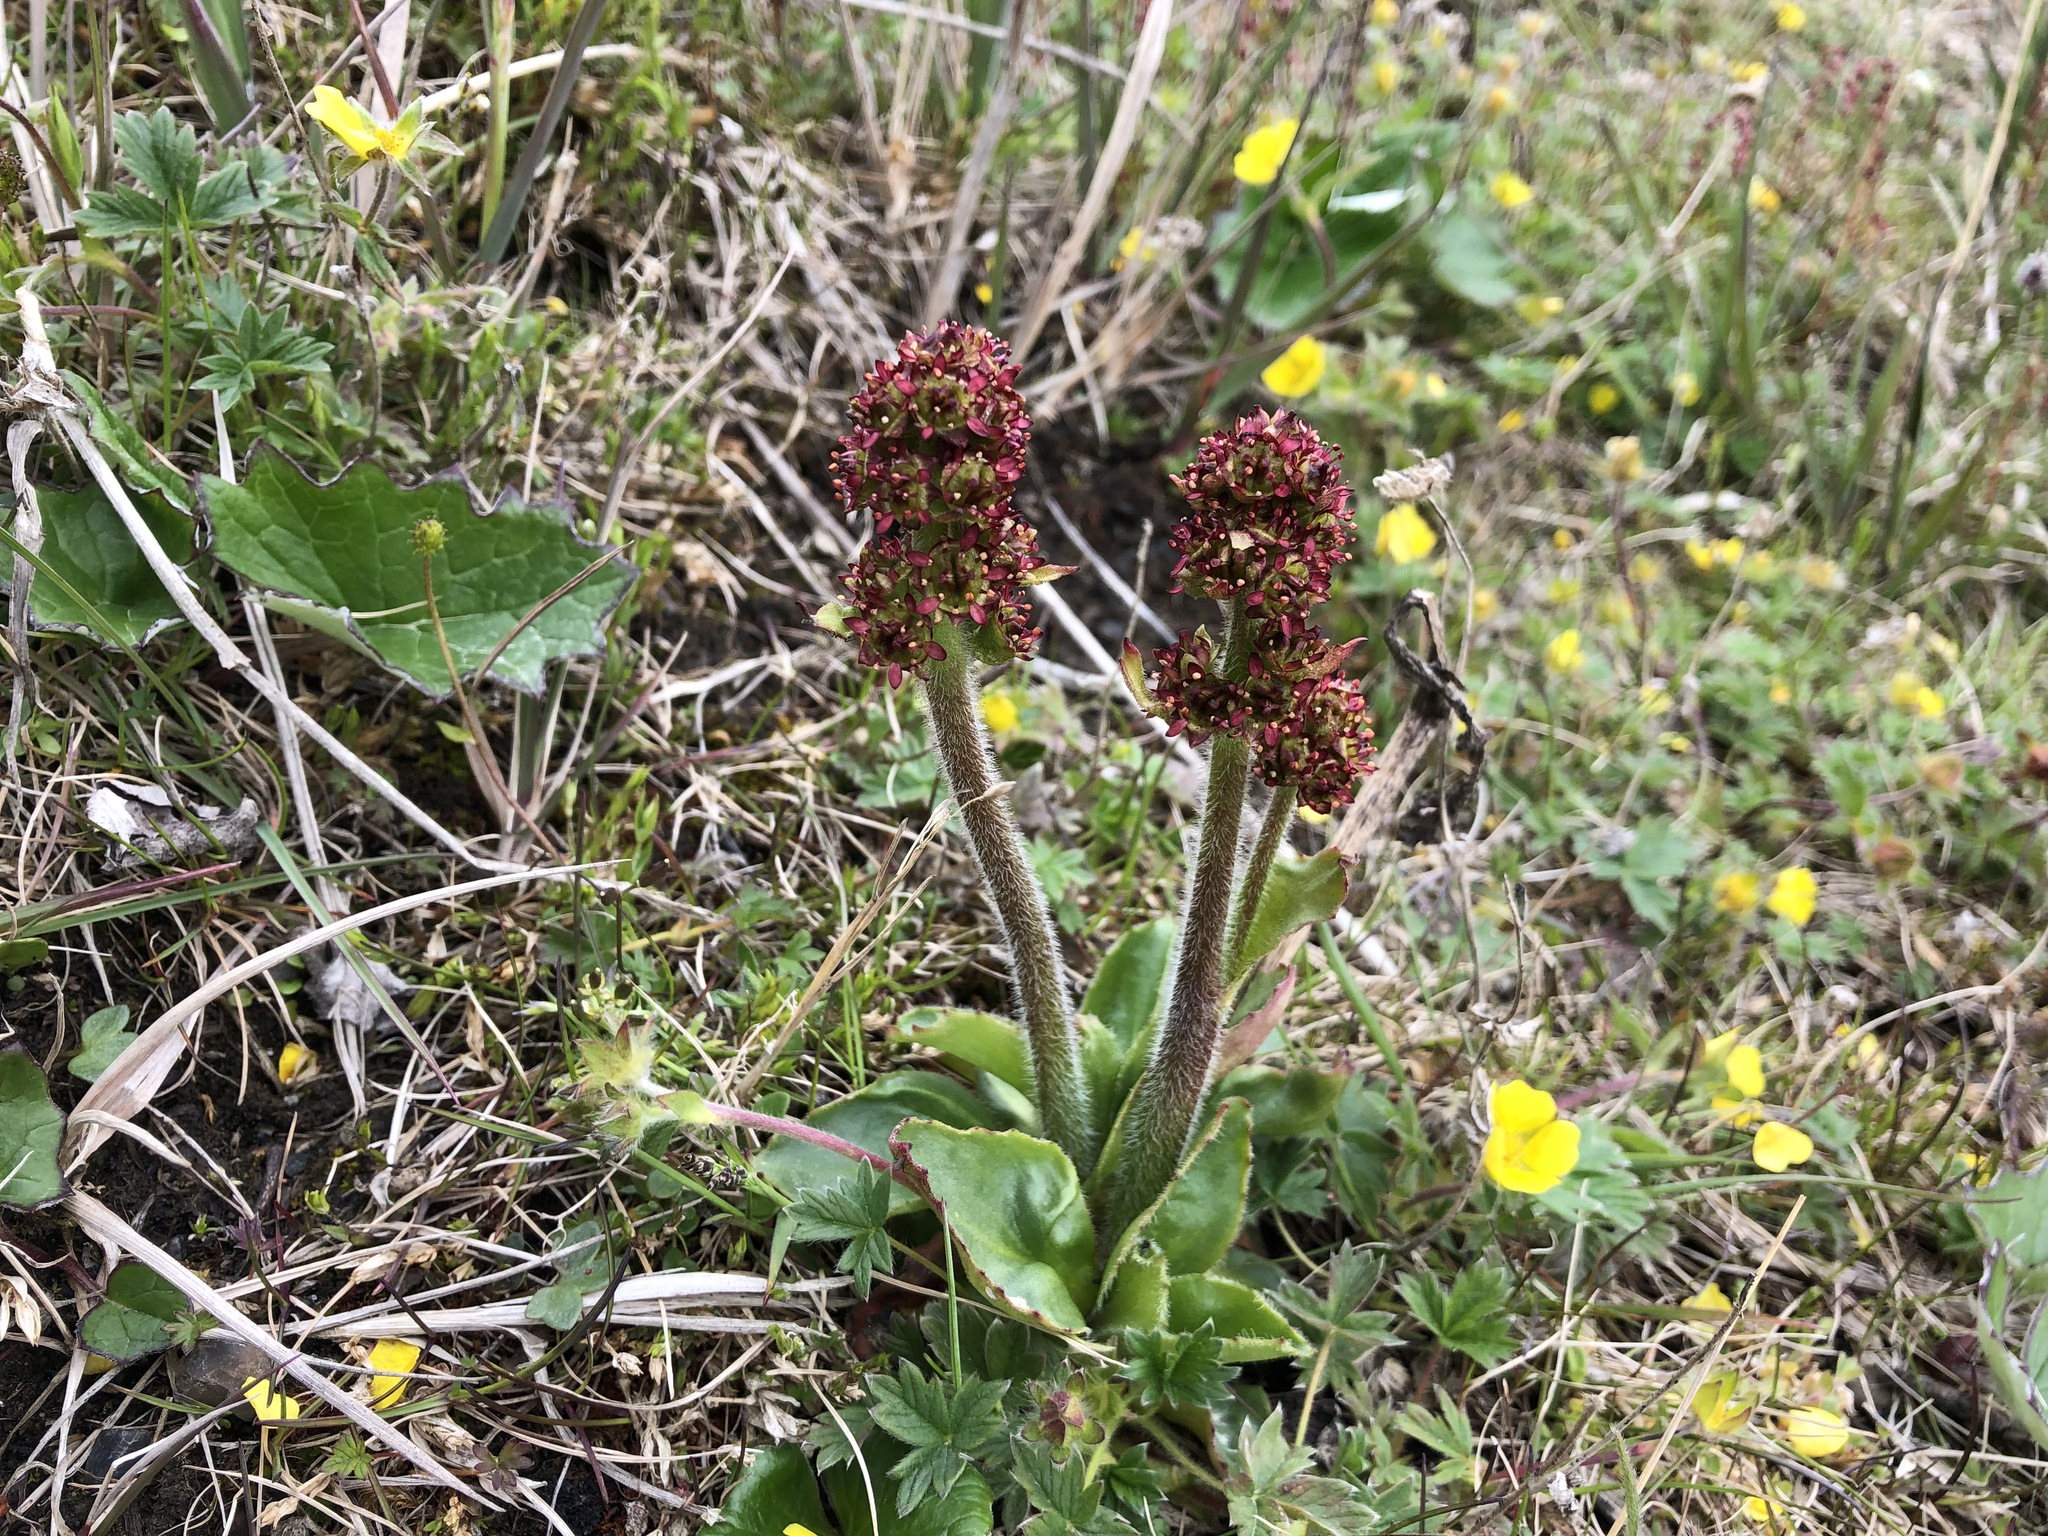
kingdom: Plantae
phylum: Tracheophyta
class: Magnoliopsida
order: Saxifragales
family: Saxifragaceae
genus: Micranthes
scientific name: Micranthes hieraciifolia
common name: Hawkweed-leaved saxifrage
